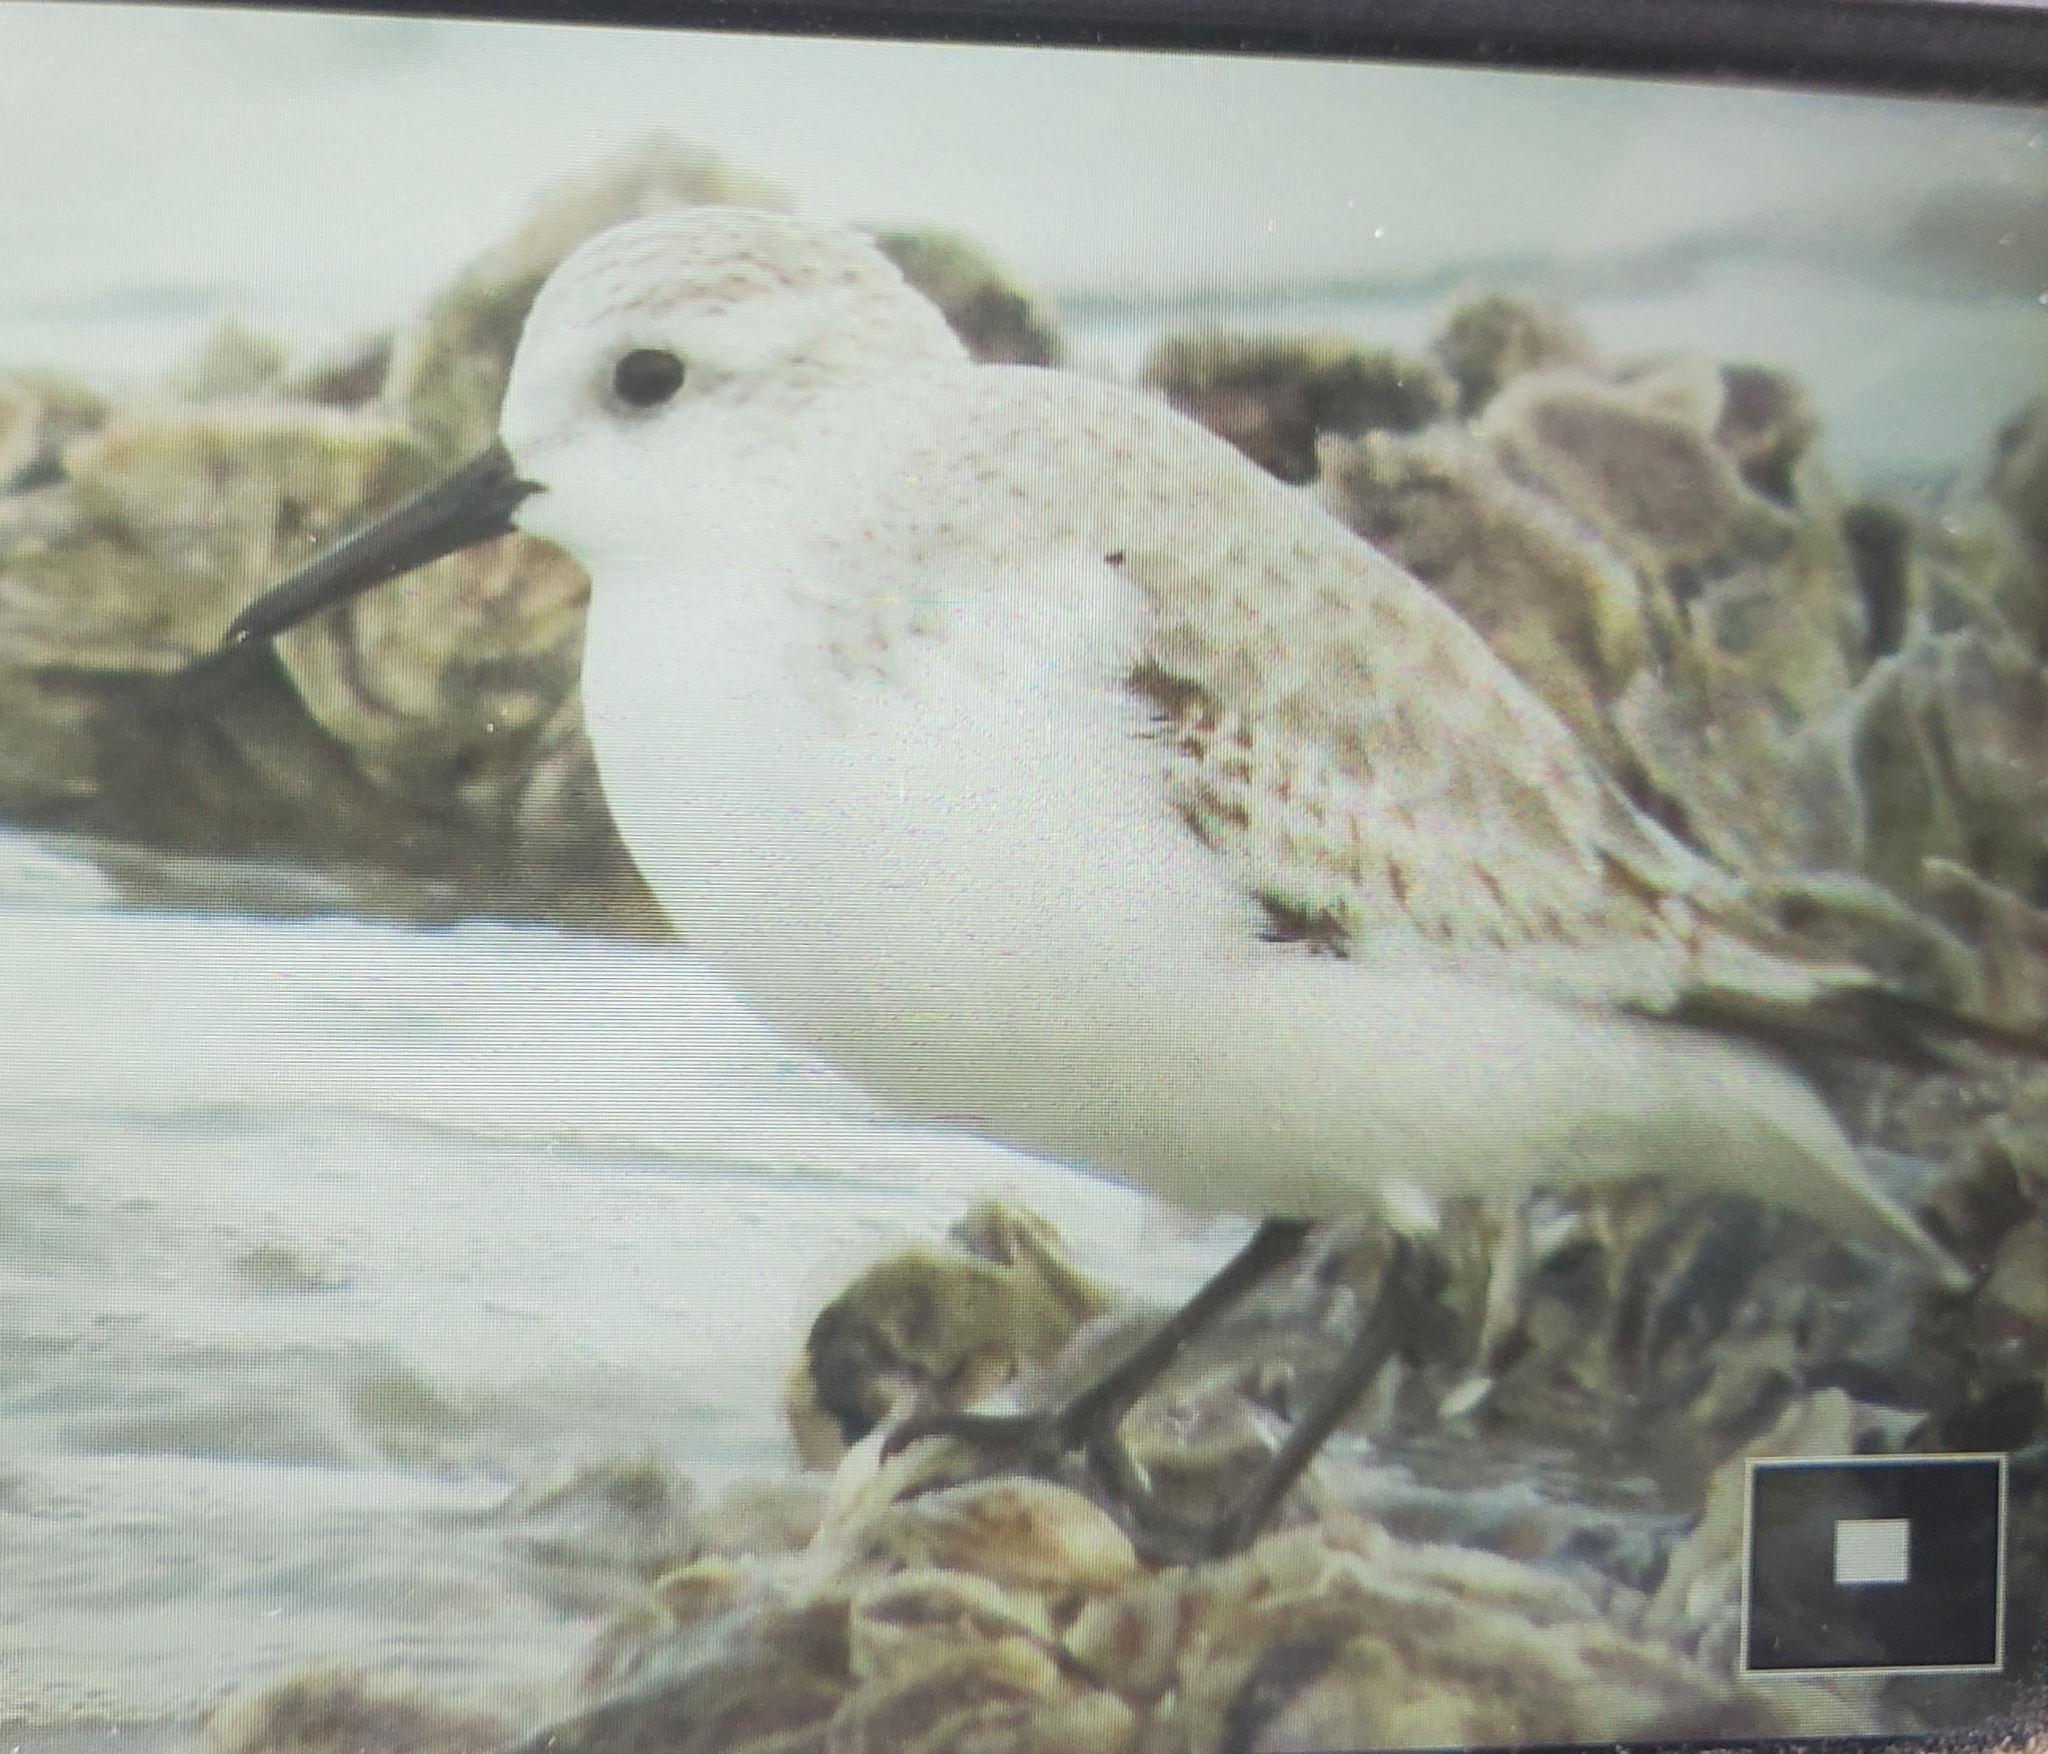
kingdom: Animalia
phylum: Chordata
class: Aves
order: Charadriiformes
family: Scolopacidae
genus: Calidris
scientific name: Calidris alba
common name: Sanderling
